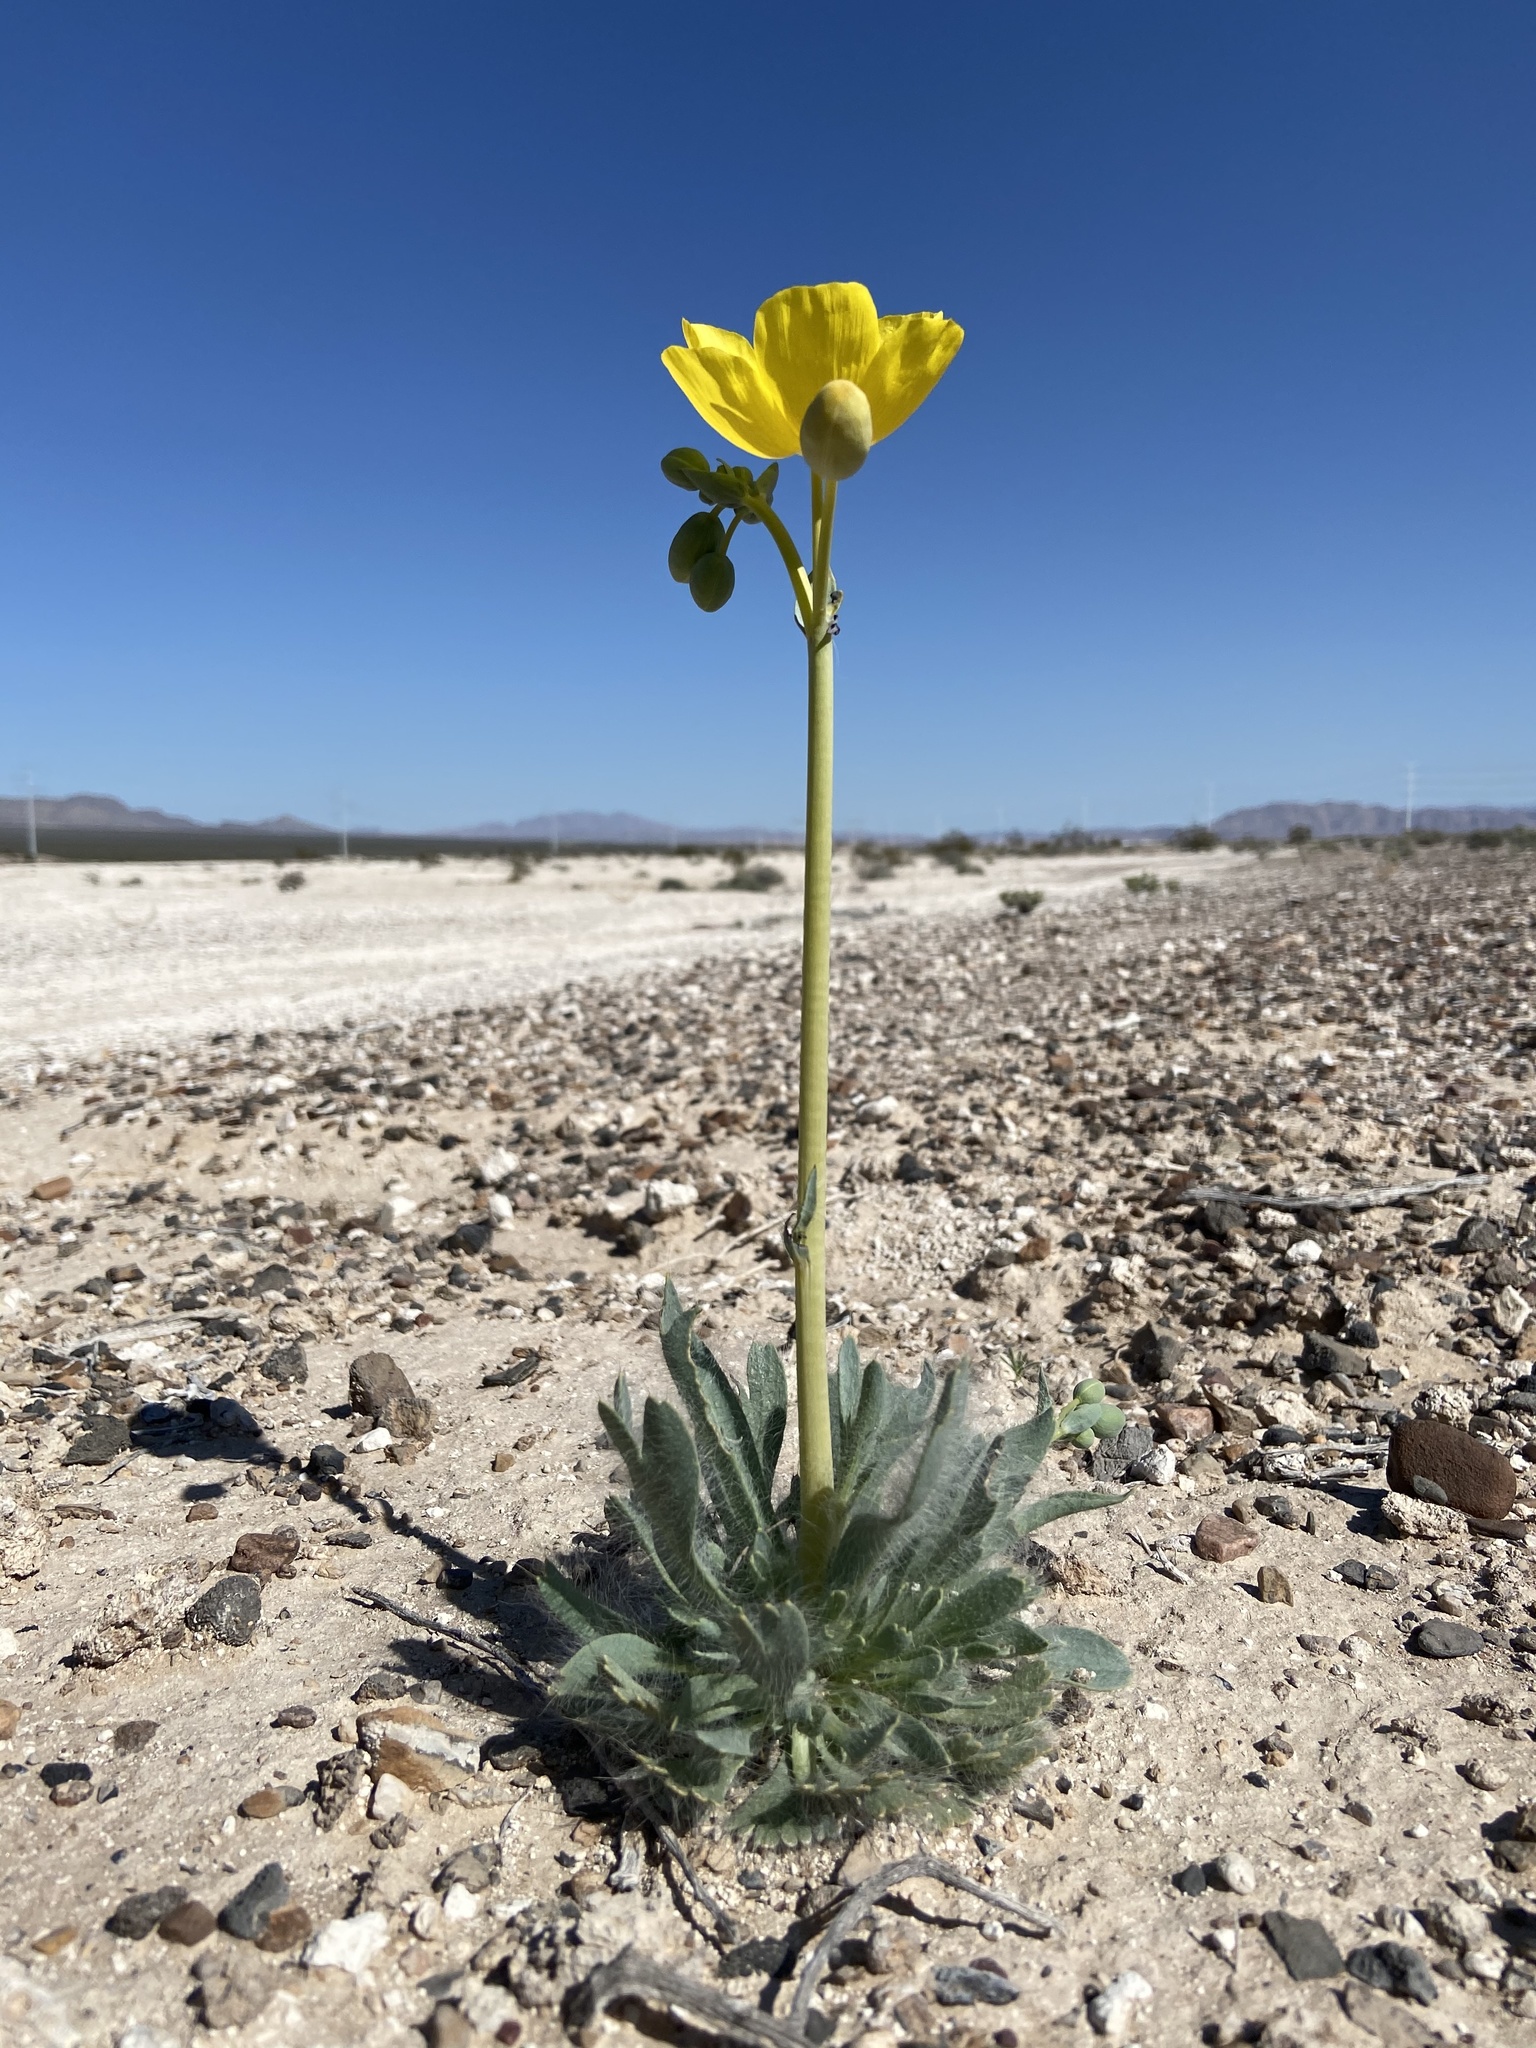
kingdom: Plantae
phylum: Tracheophyta
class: Magnoliopsida
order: Ranunculales
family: Papaveraceae
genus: Arctomecon
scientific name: Arctomecon californicum
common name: Golden bearclaw-poppy
